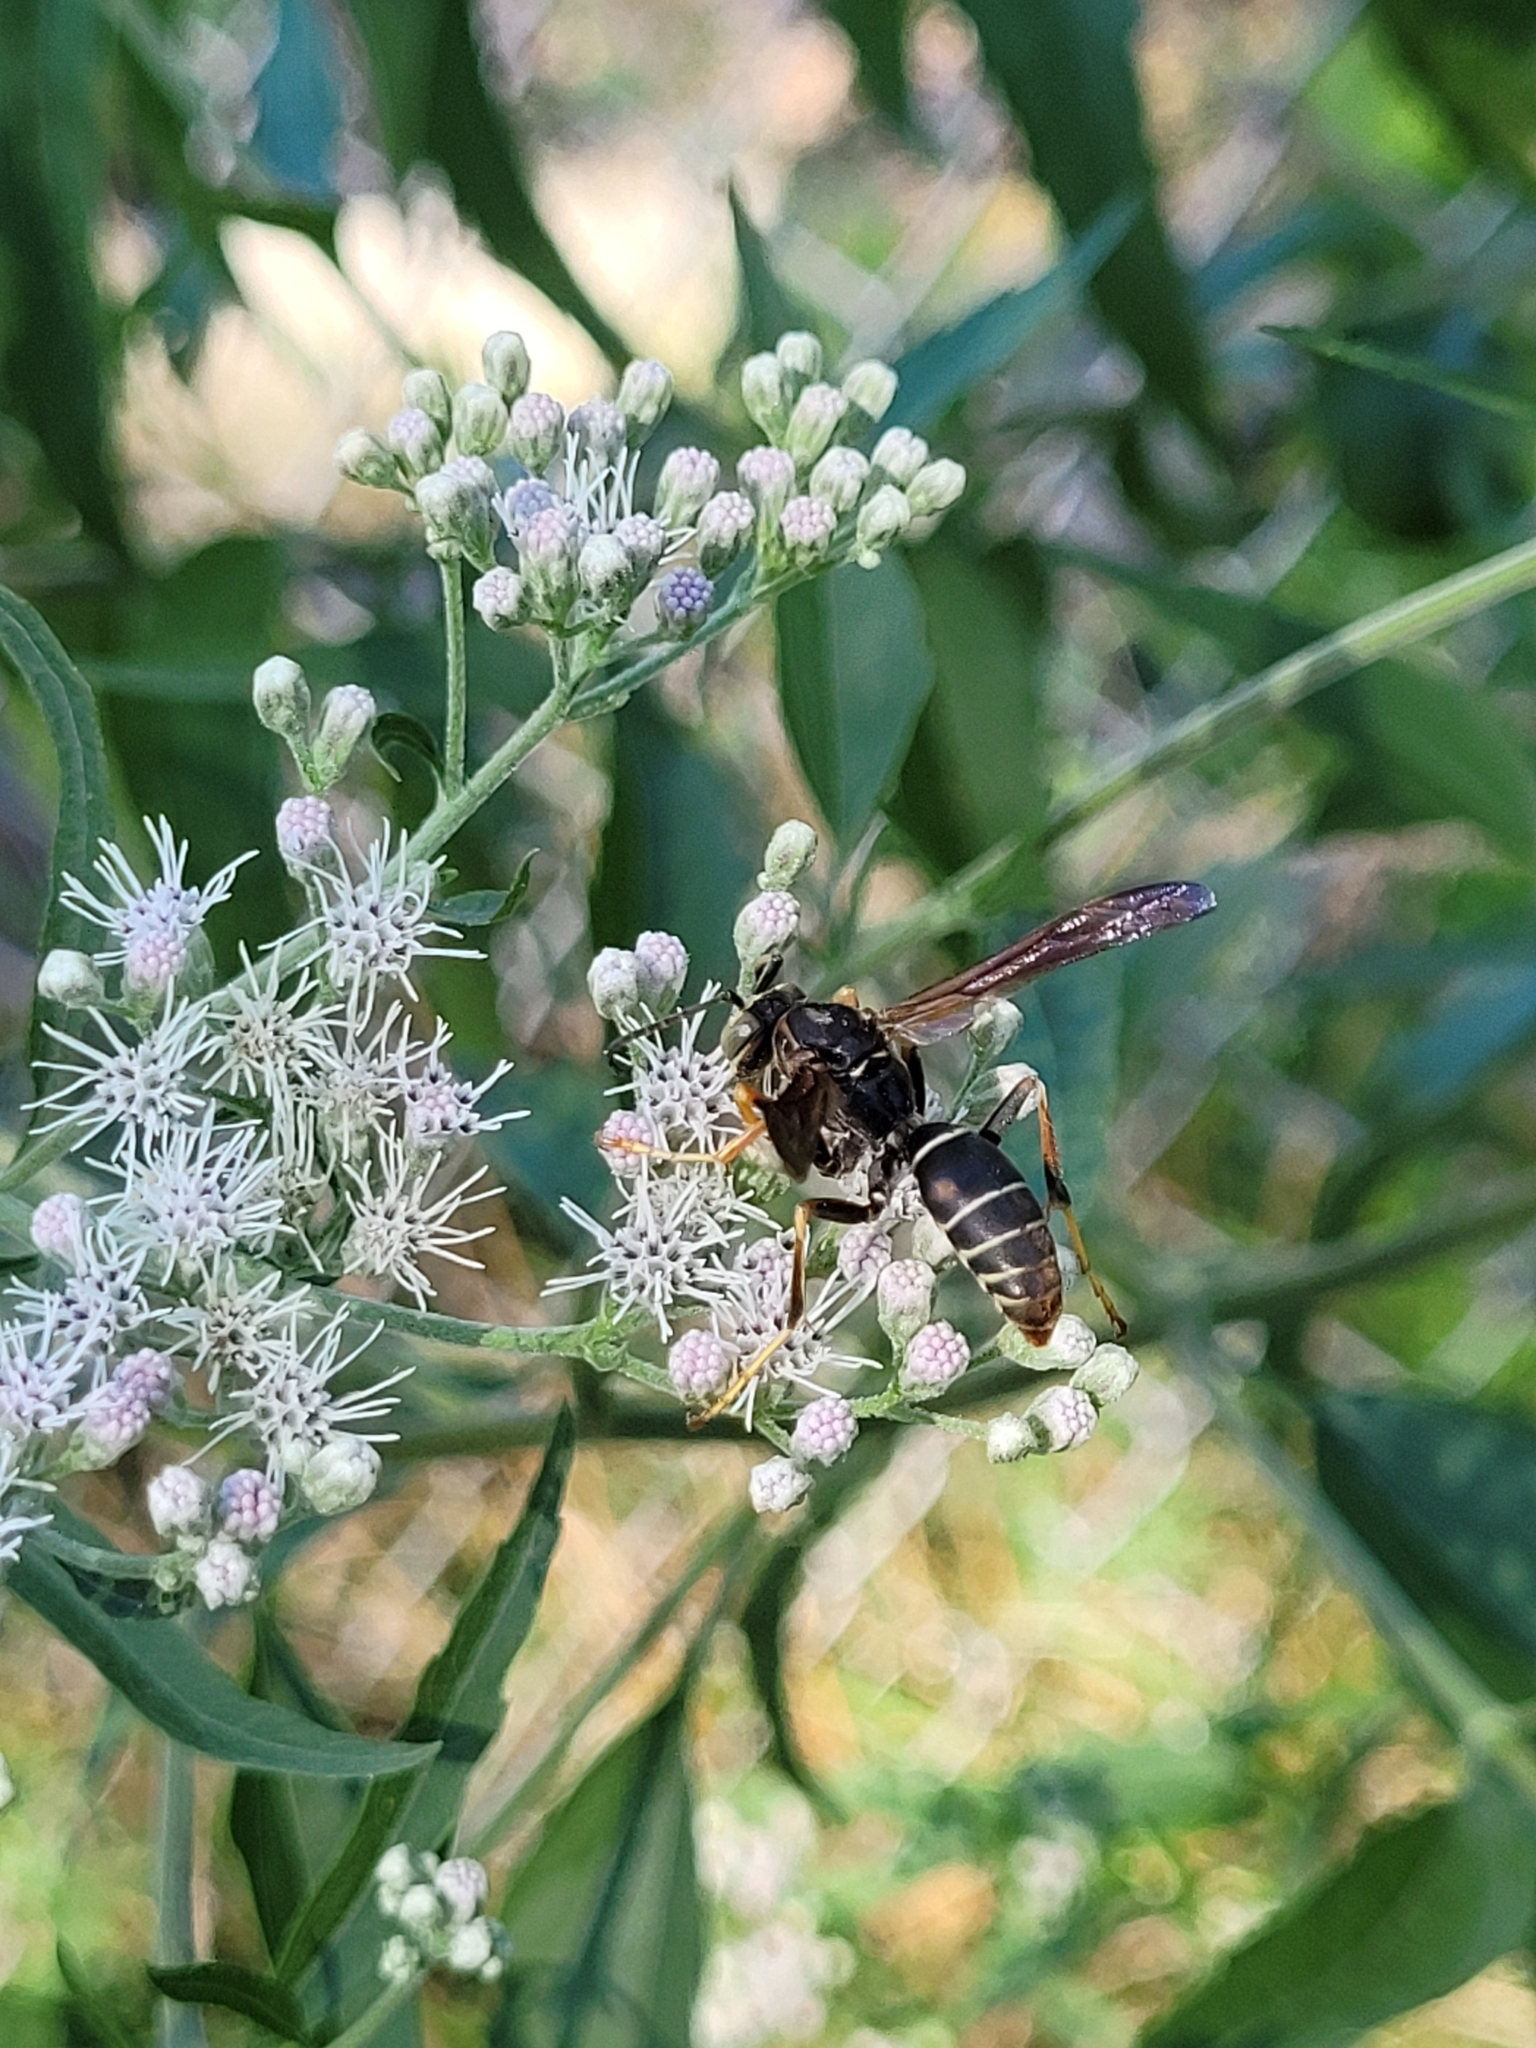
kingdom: Animalia
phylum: Arthropoda
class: Insecta
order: Hymenoptera
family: Eumenidae
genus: Polistes
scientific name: Polistes fuscatus
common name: Dark paper wasp
